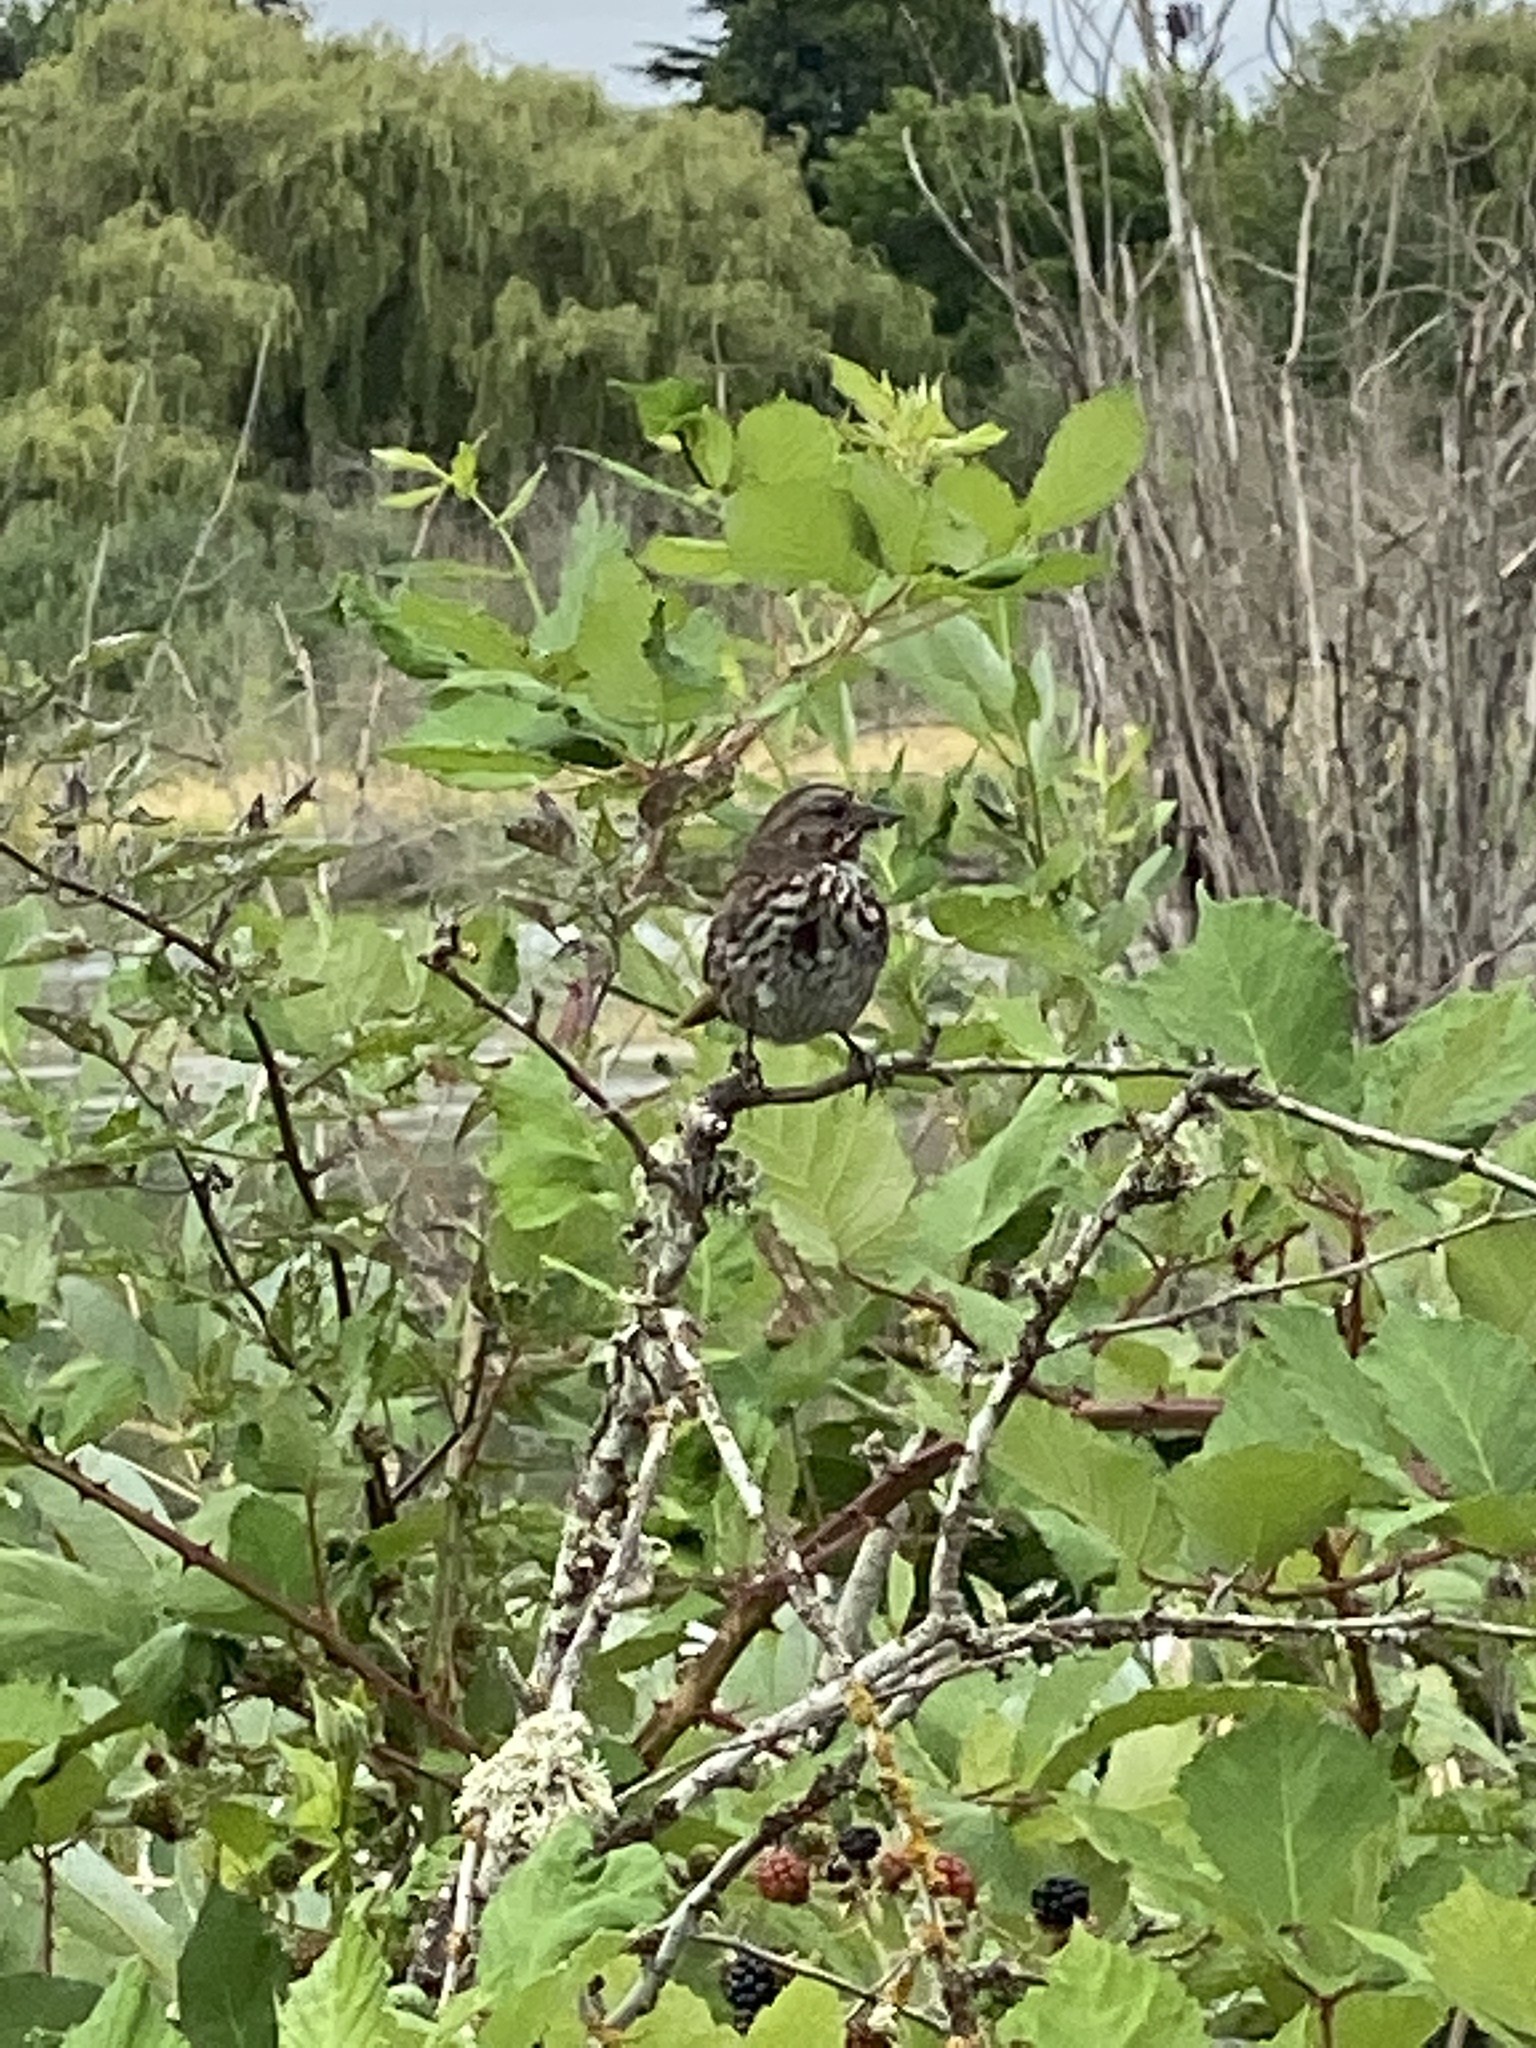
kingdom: Animalia
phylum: Chordata
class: Aves
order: Passeriformes
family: Passerellidae
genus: Melospiza
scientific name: Melospiza melodia
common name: Song sparrow
